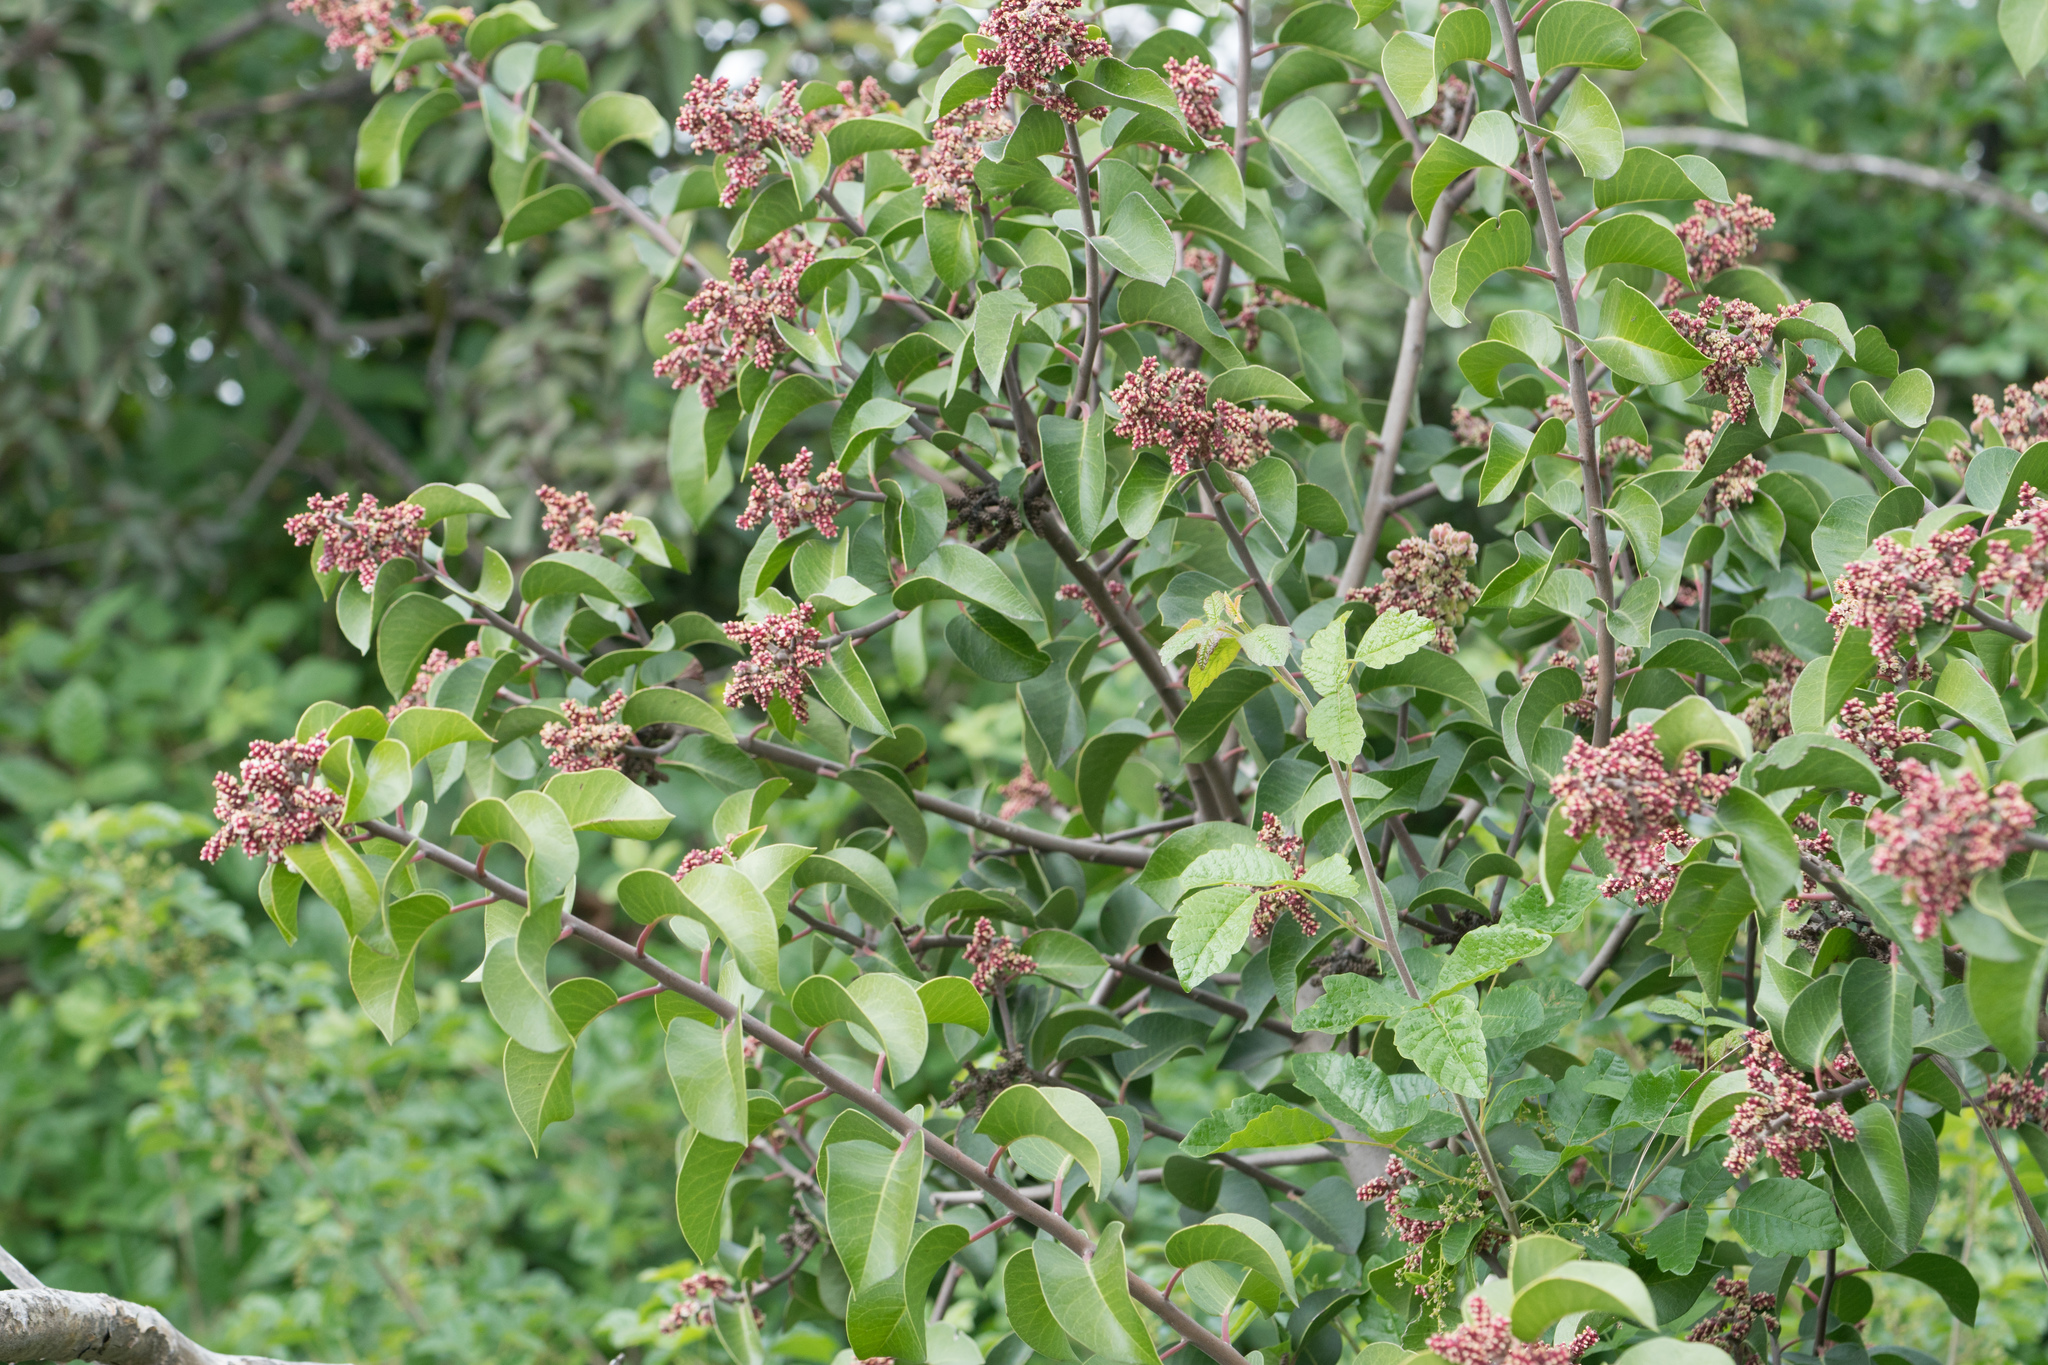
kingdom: Plantae
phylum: Tracheophyta
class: Magnoliopsida
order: Sapindales
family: Anacardiaceae
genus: Rhus
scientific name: Rhus ovata
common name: Sugar sumac
